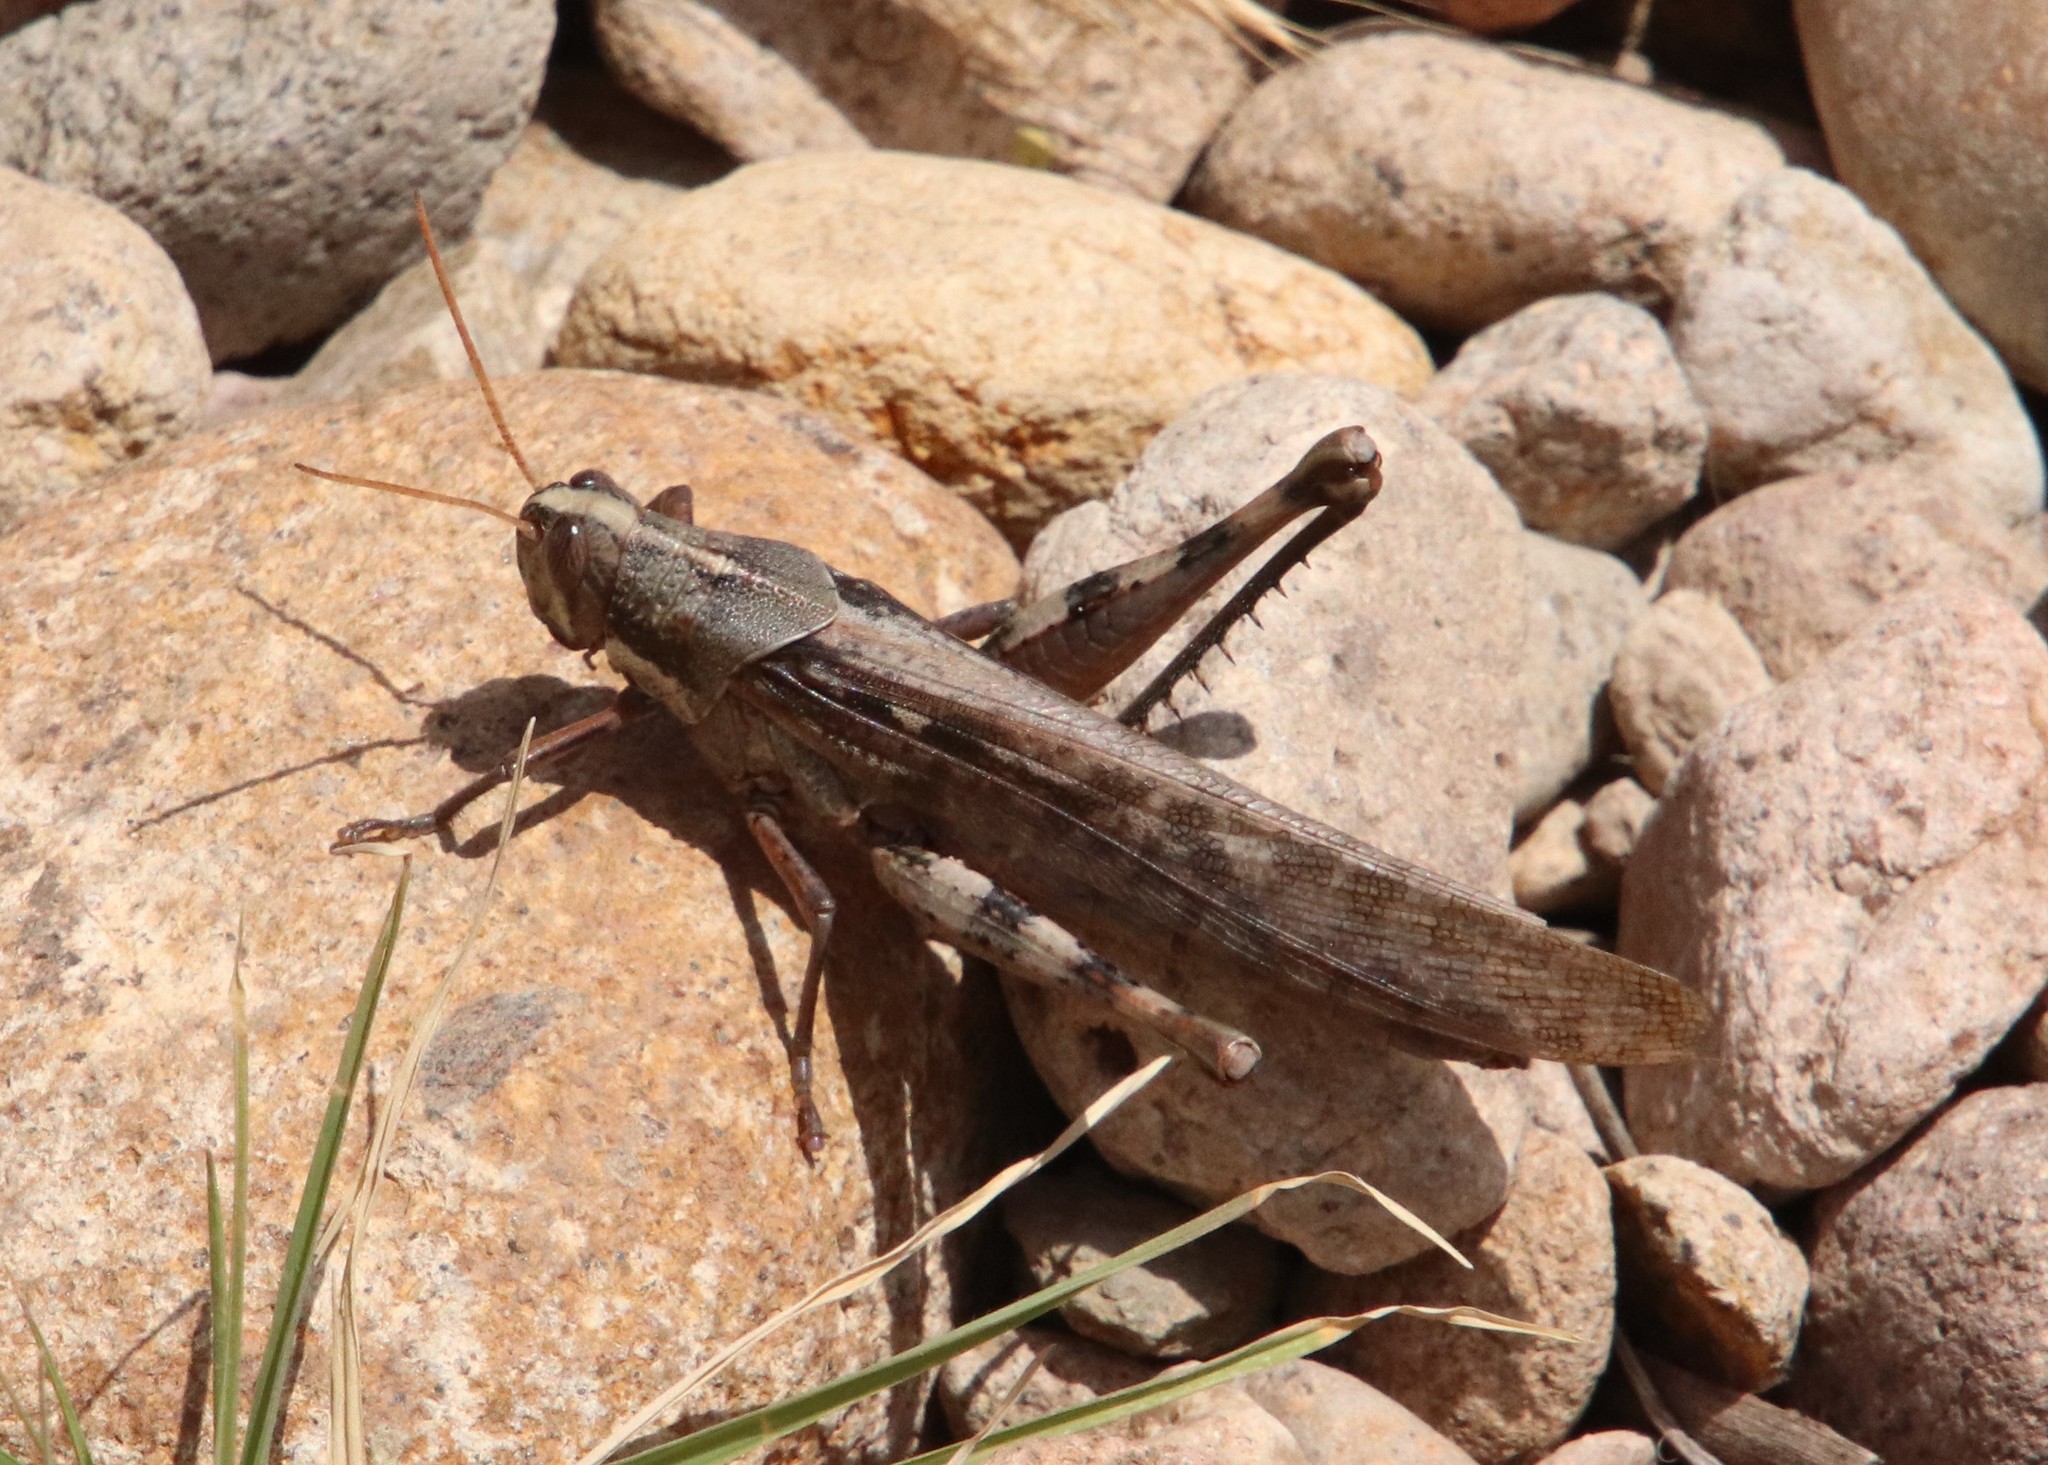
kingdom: Animalia
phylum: Arthropoda
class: Insecta
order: Orthoptera
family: Acrididae
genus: Schistocerca
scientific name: Schistocerca nitens
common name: Vagrant grasshopper
